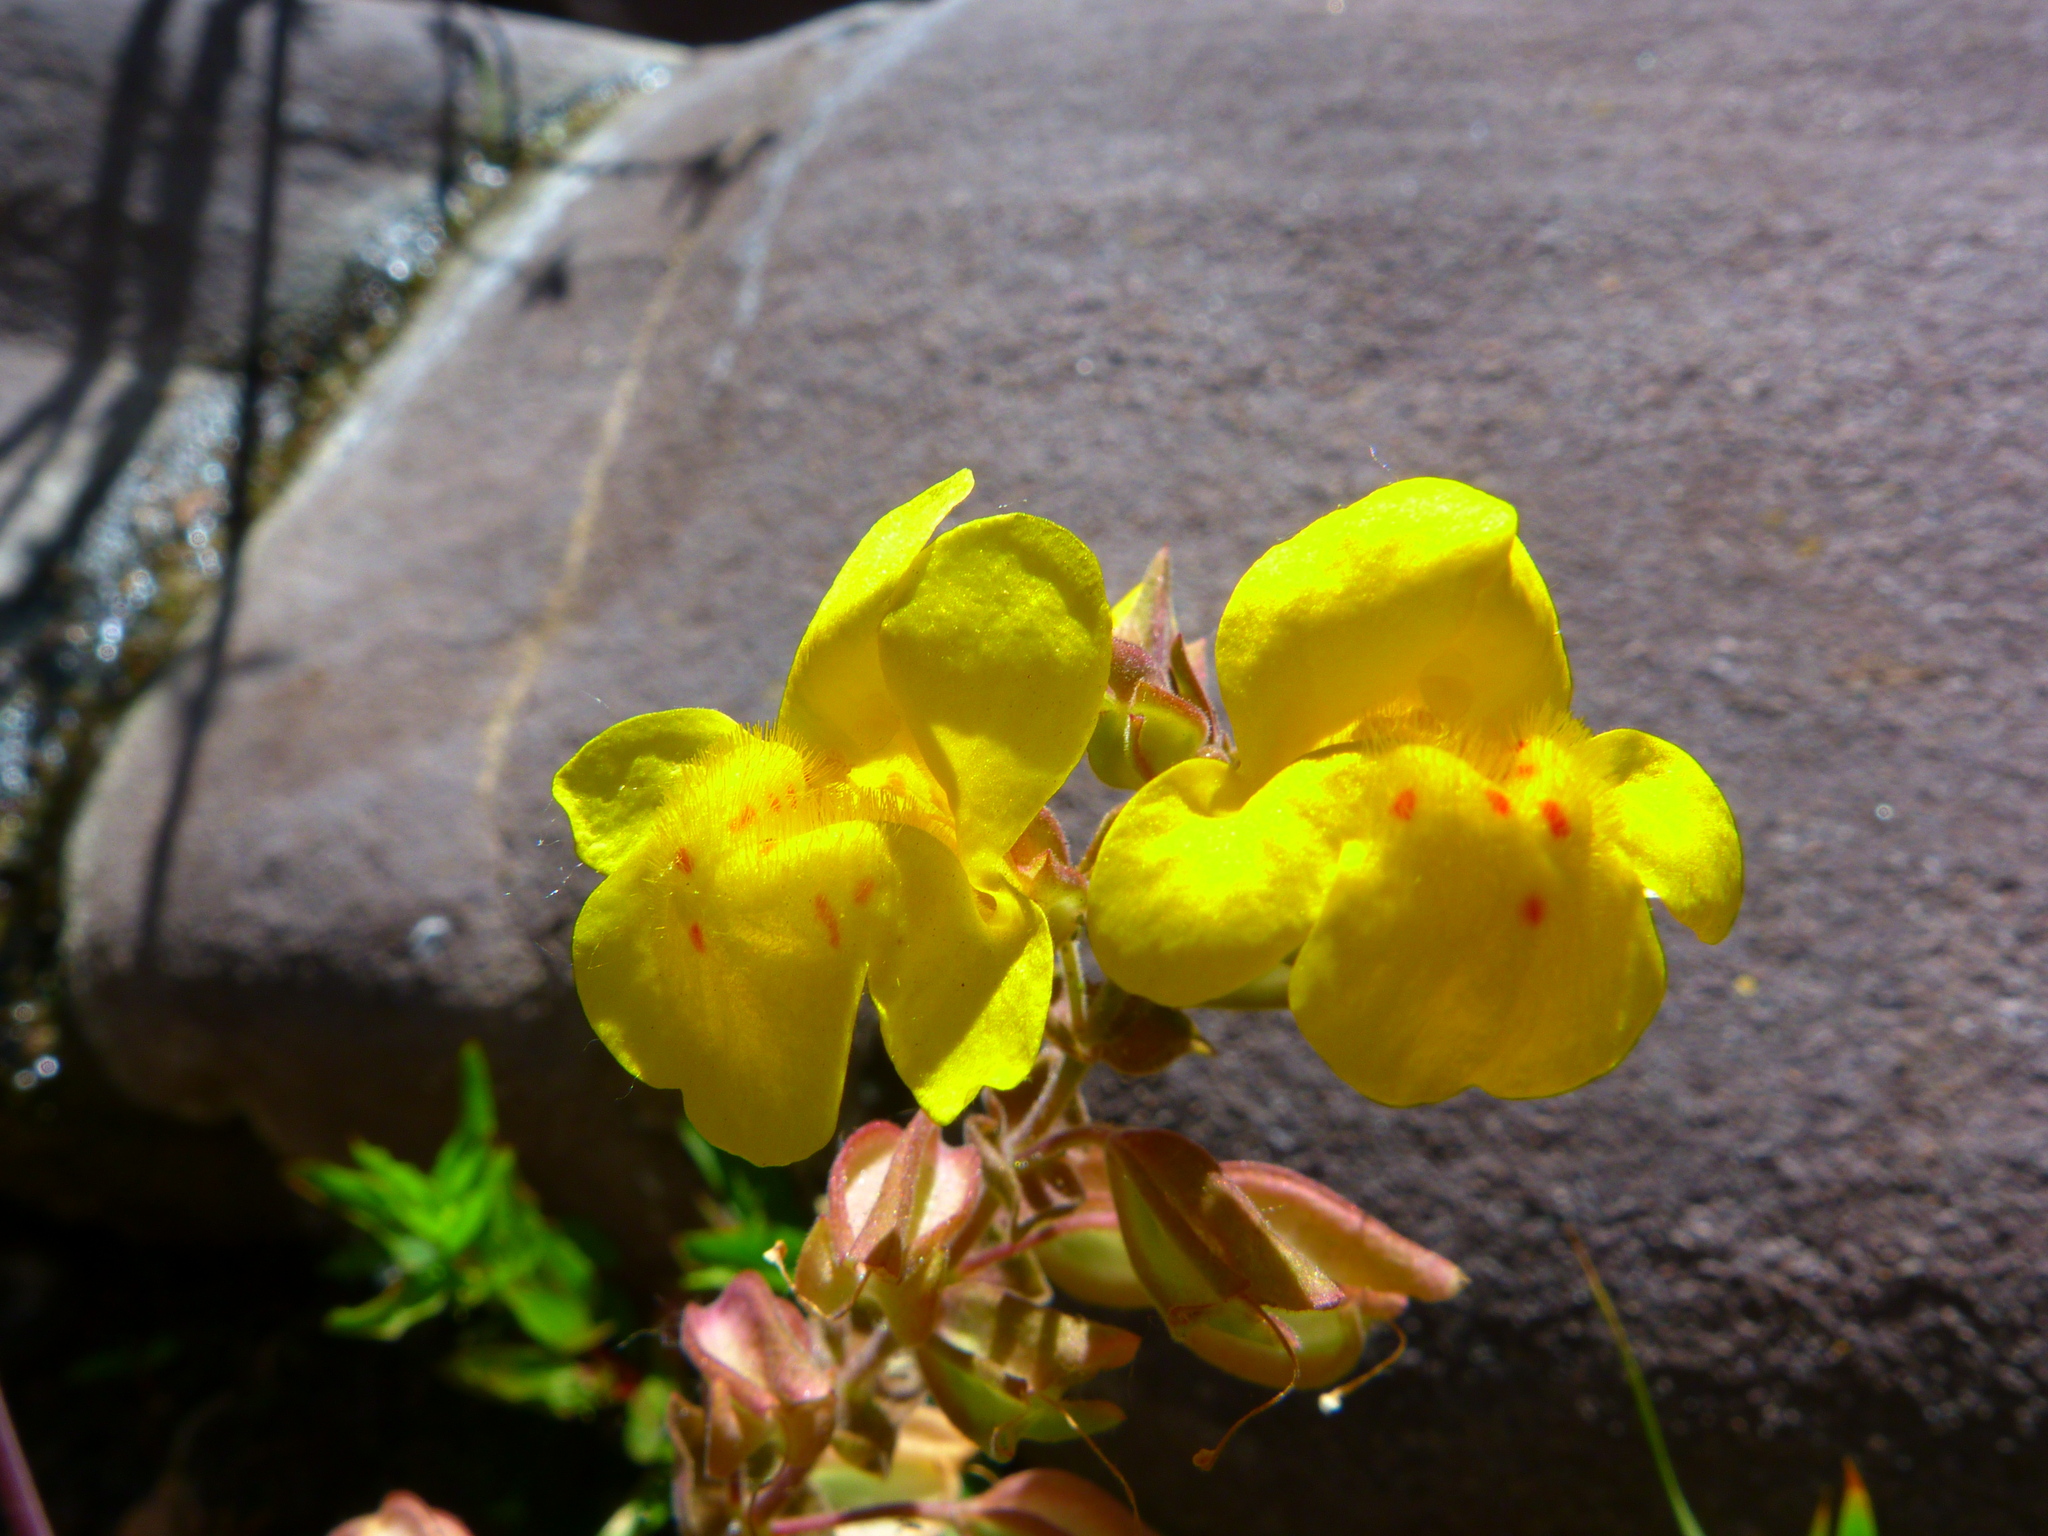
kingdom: Plantae
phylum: Tracheophyta
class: Magnoliopsida
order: Lamiales
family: Phrymaceae
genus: Erythranthe
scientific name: Erythranthe guttata
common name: Monkeyflower
